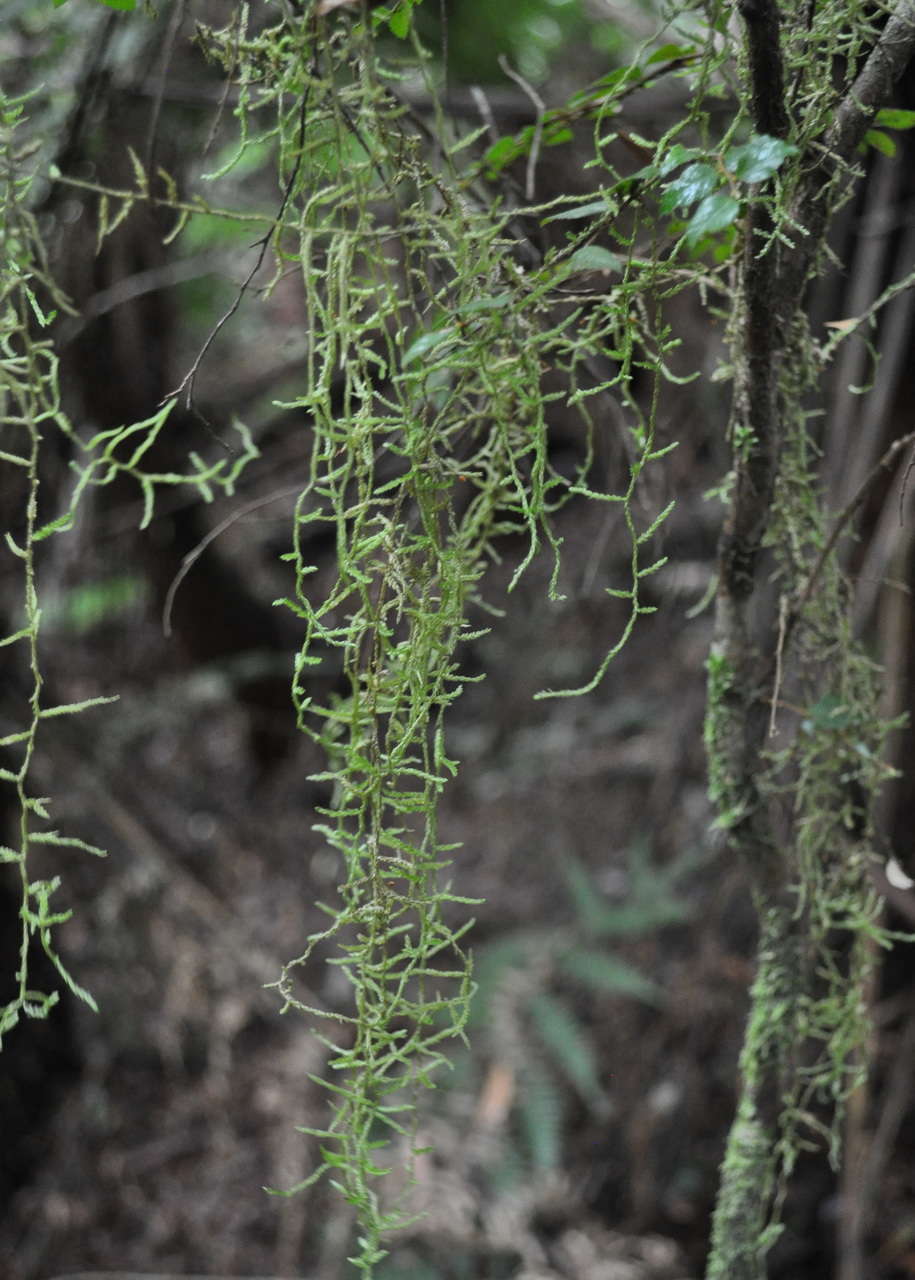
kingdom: Plantae
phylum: Bryophyta
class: Bryopsida
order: Hypnales
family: Meteoriaceae
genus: Papillaria
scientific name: Papillaria flavolimbata
